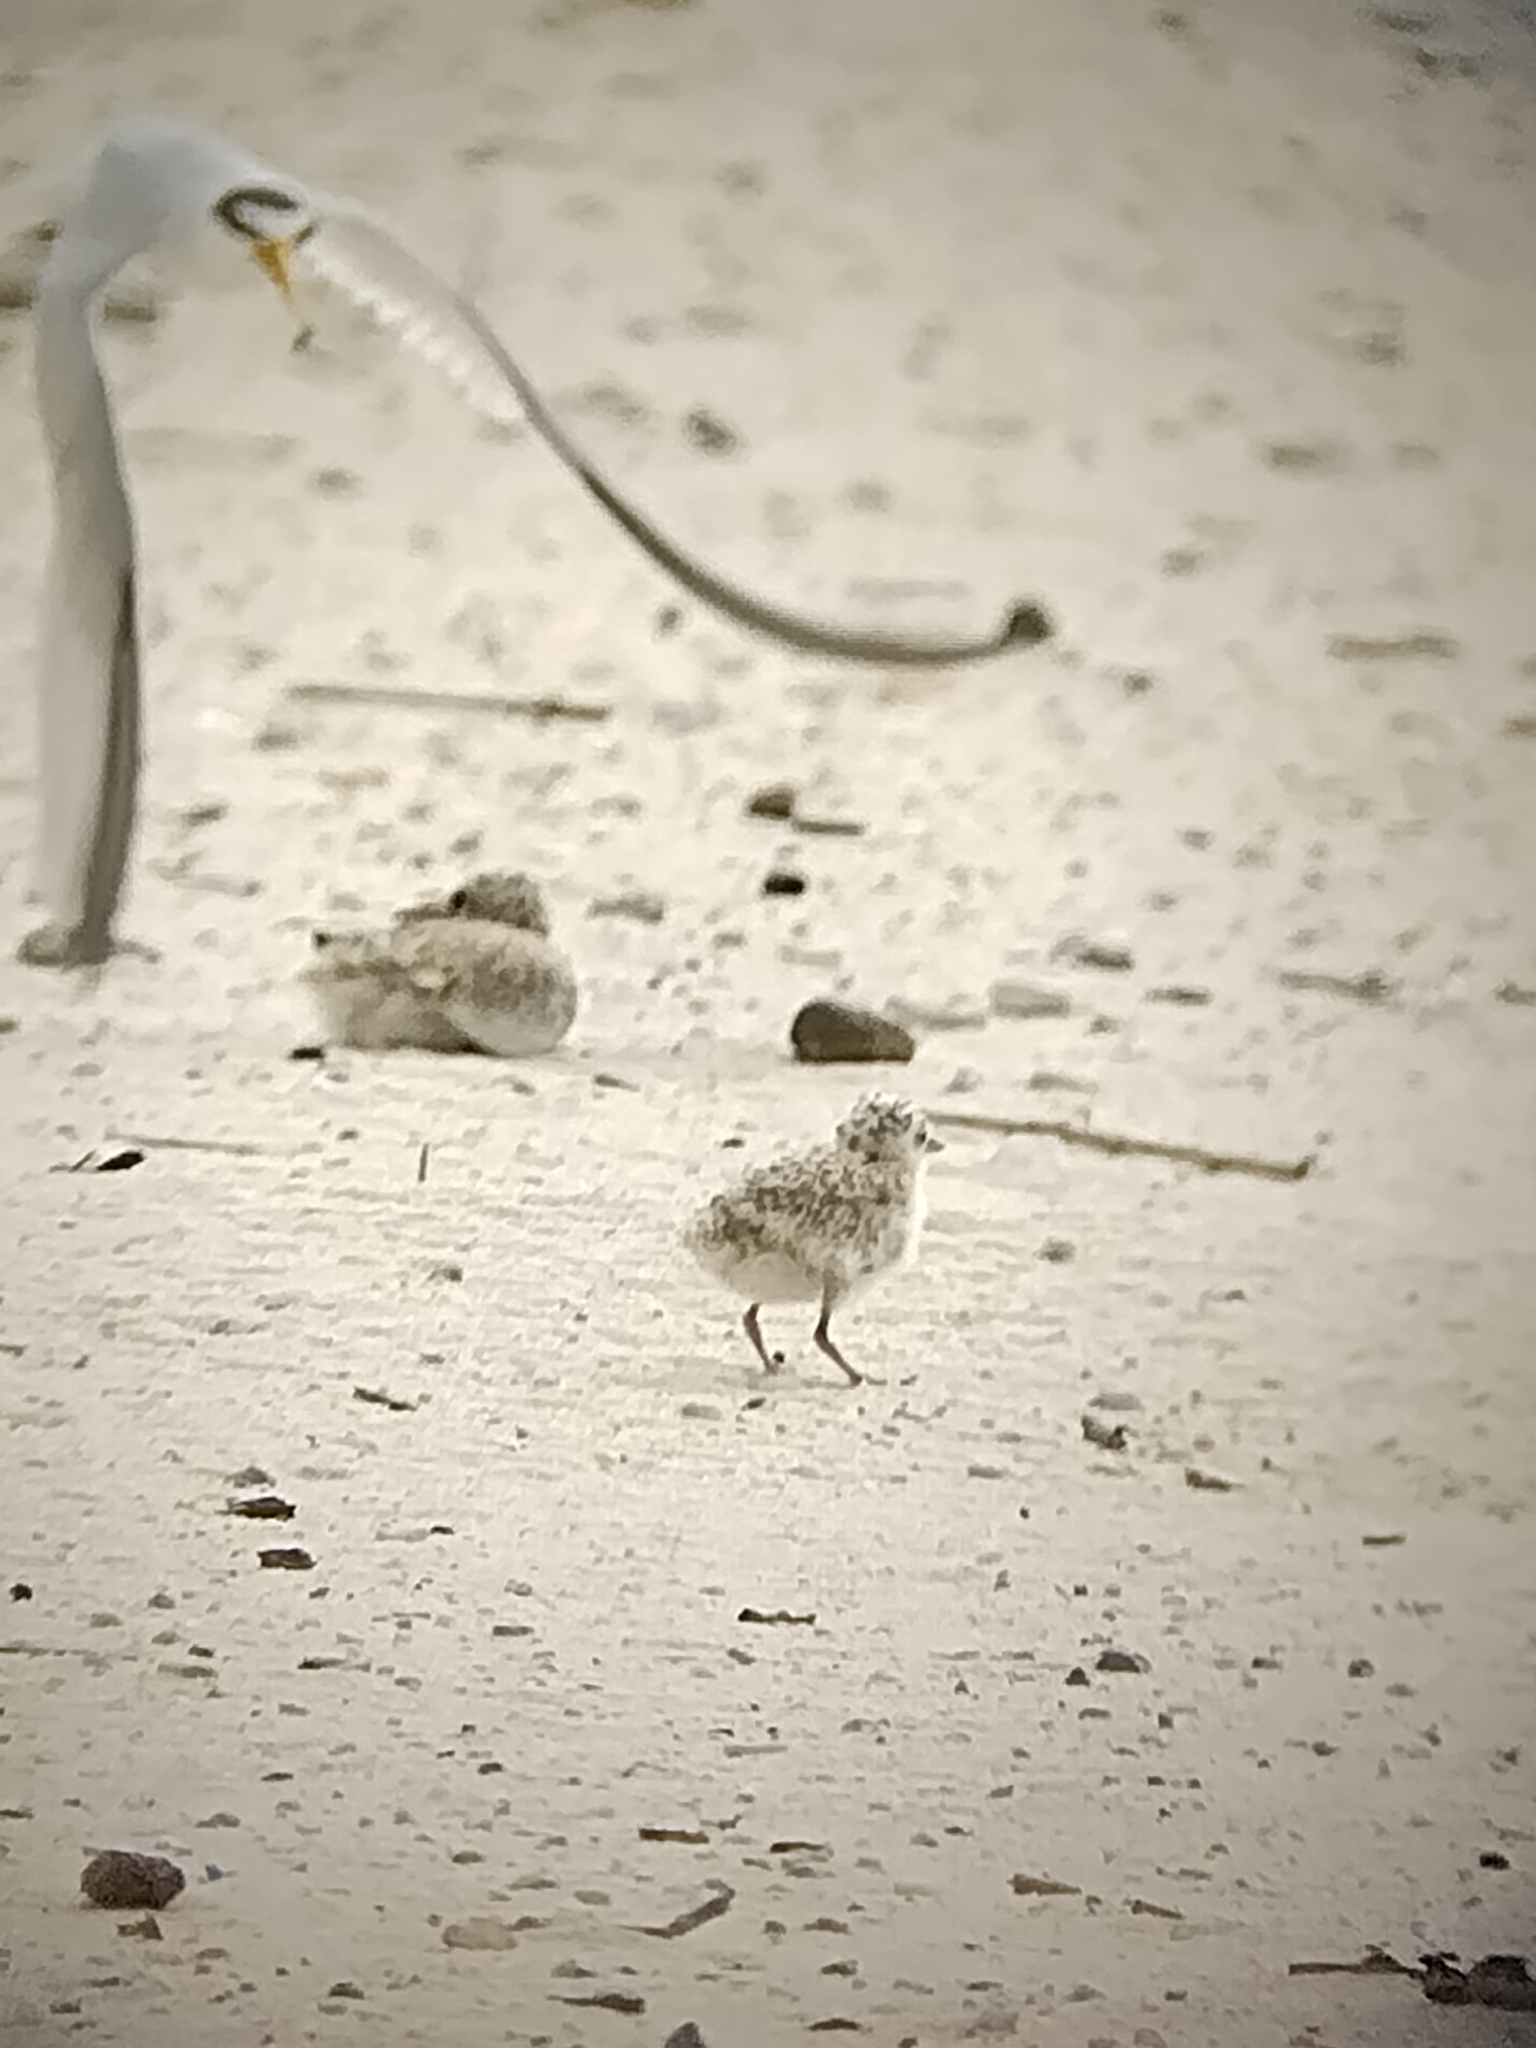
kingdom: Animalia
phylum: Chordata
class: Aves
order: Charadriiformes
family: Laridae
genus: Sternula
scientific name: Sternula antillarum
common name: Least tern
